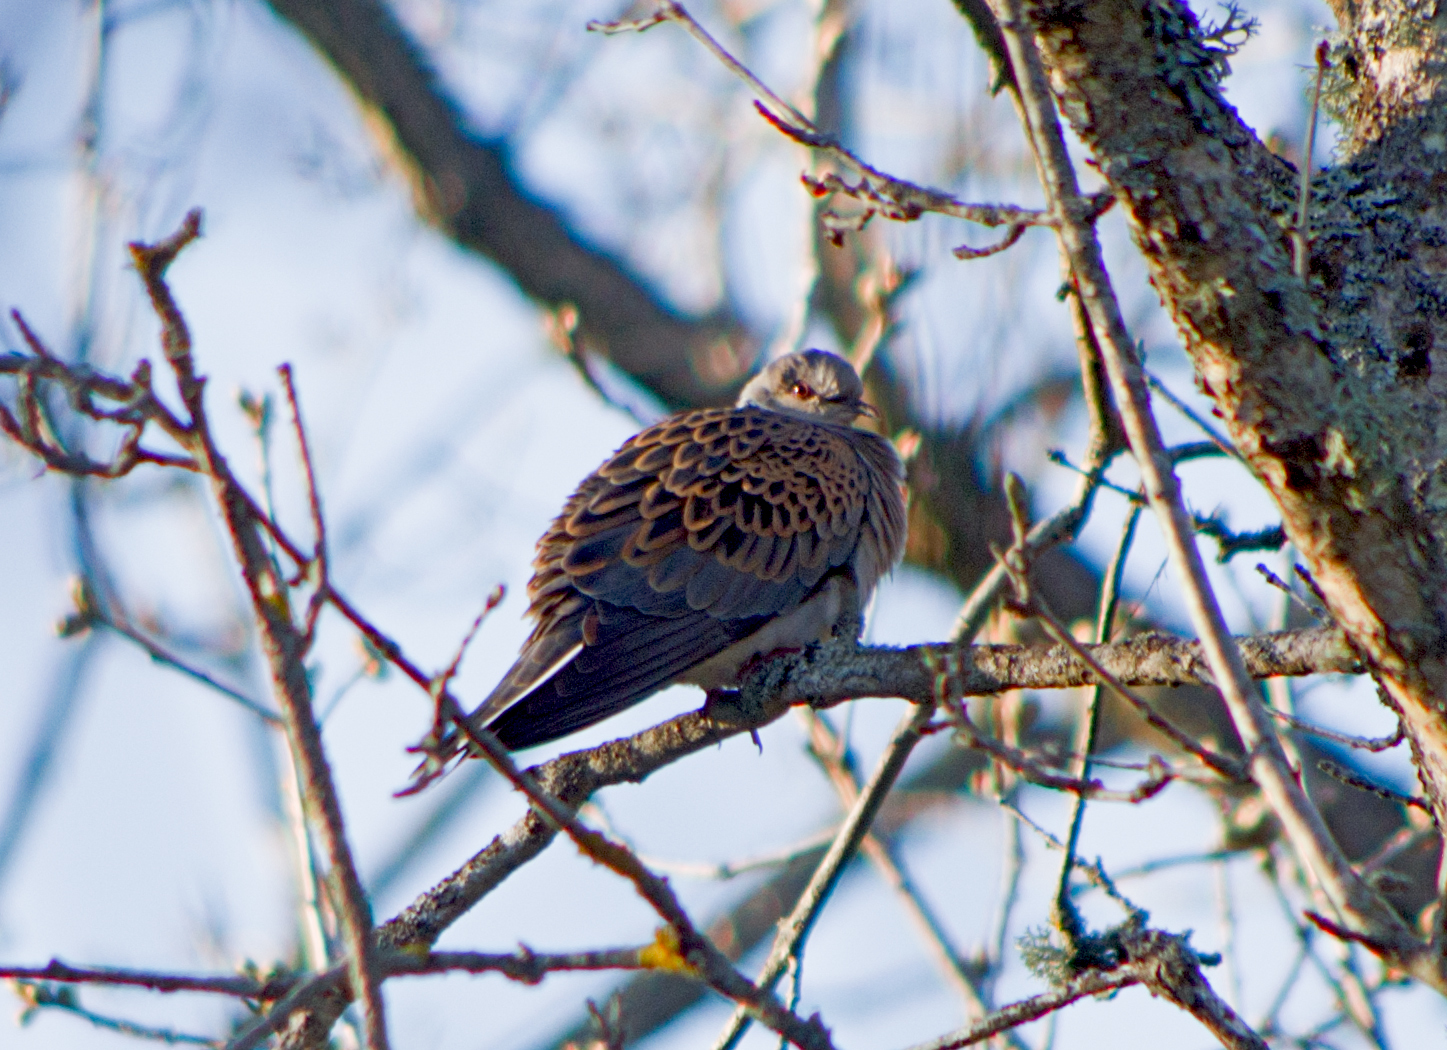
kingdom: Animalia
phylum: Chordata
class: Aves
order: Columbiformes
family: Columbidae
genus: Streptopelia
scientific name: Streptopelia turtur
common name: European turtle dove
